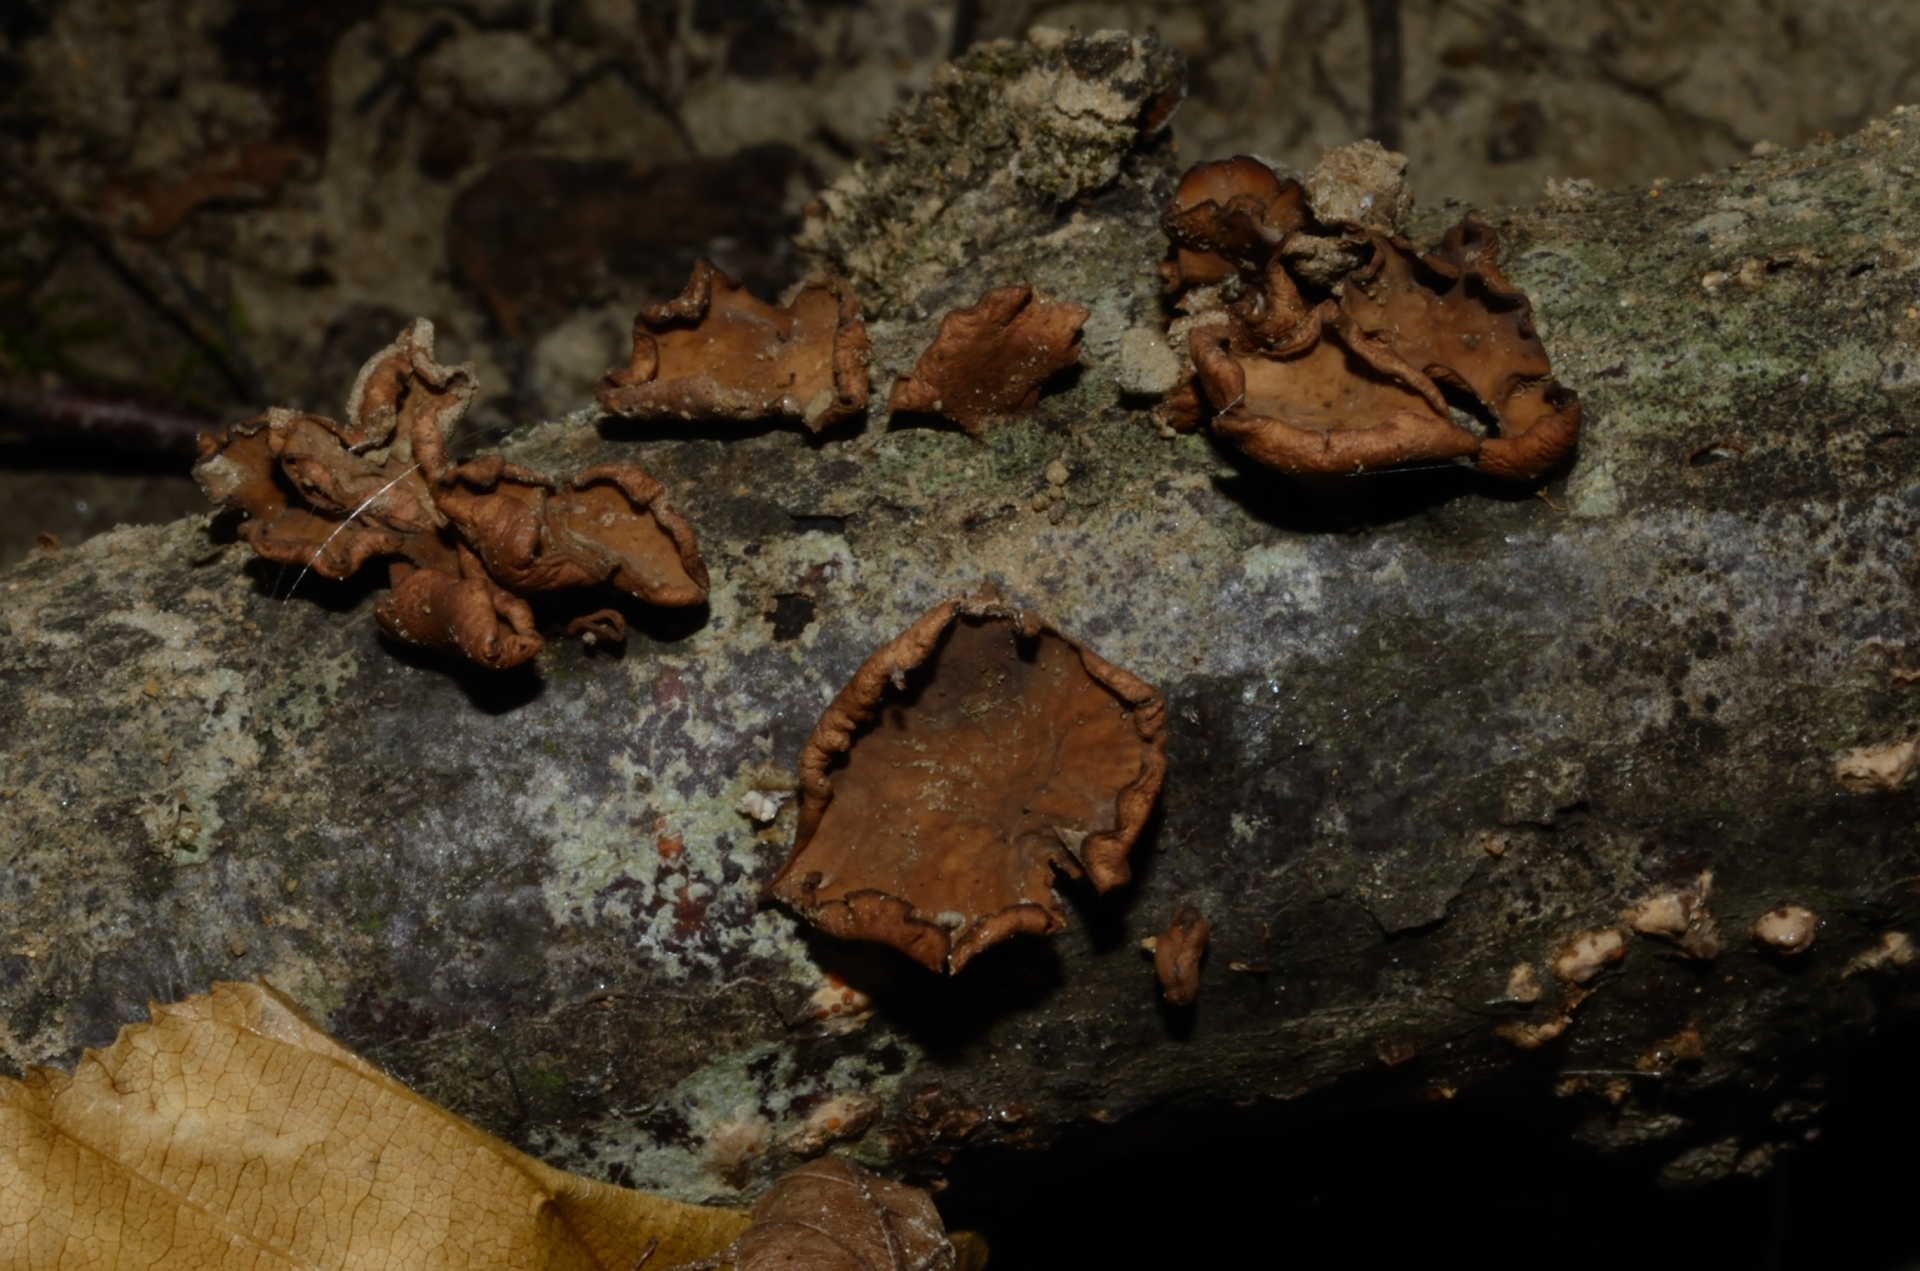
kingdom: Fungi
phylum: Ascomycota
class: Leotiomycetes
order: Helotiales
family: Cenangiaceae
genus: Encoelia
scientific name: Encoelia glaberrima
